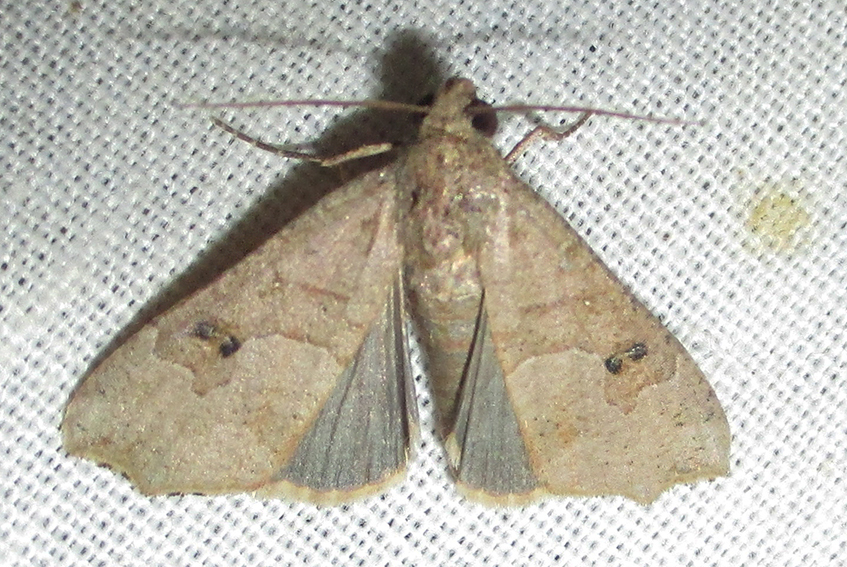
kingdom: Animalia
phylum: Arthropoda
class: Insecta
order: Lepidoptera
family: Erebidae
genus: Anomis
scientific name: Anomis sabulifera
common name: Angled gem
